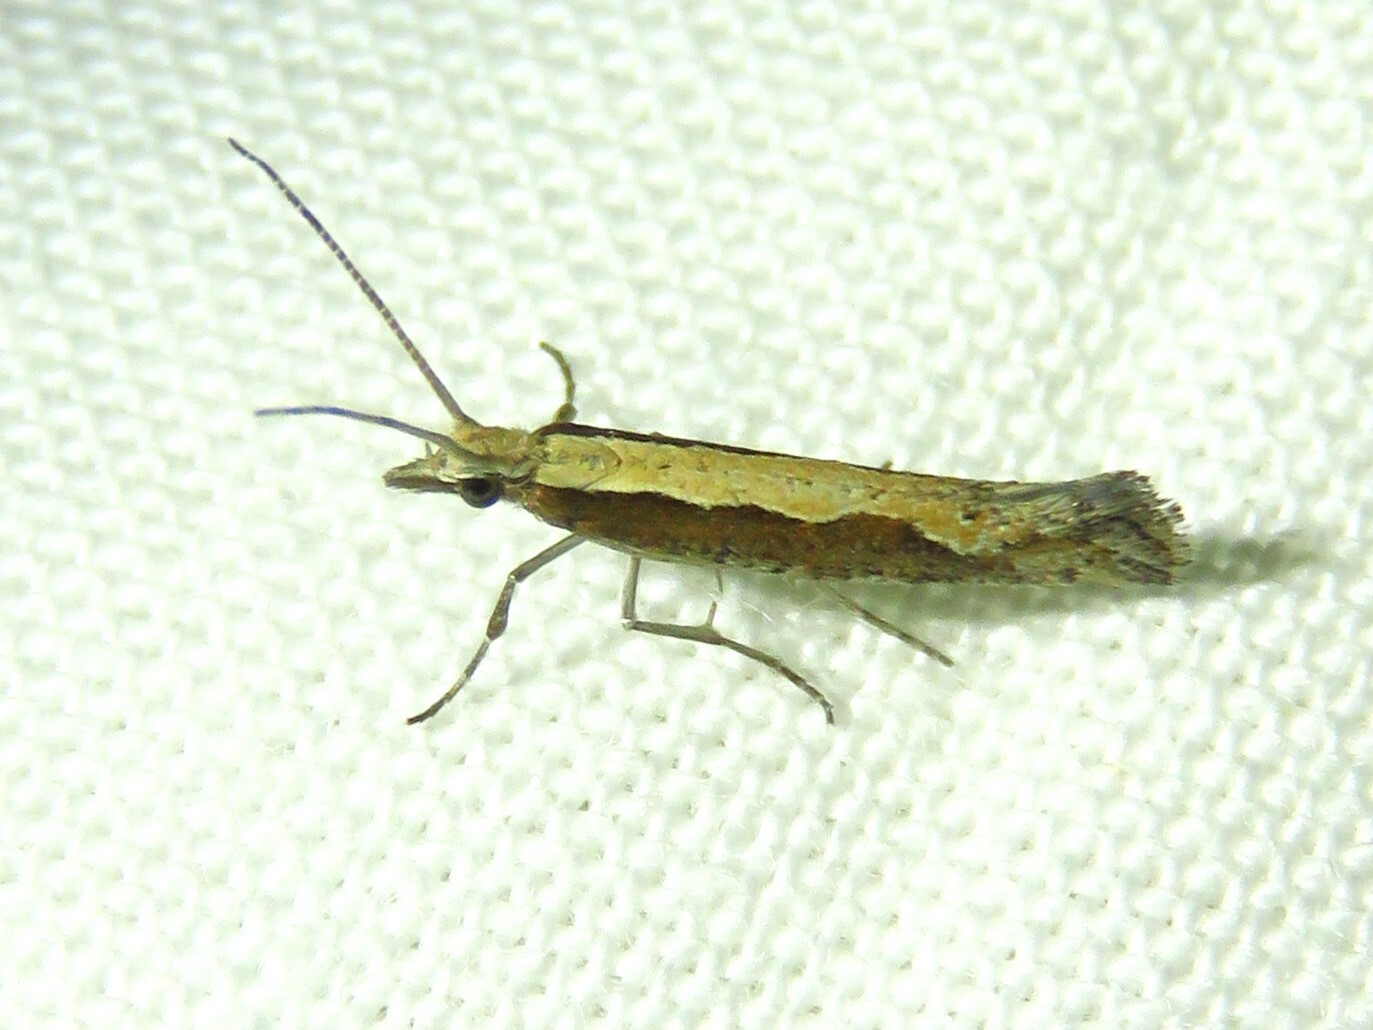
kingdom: Animalia
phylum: Arthropoda
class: Insecta
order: Lepidoptera
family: Plutellidae
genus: Plutella
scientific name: Plutella xylostella
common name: Diamond-back moth
